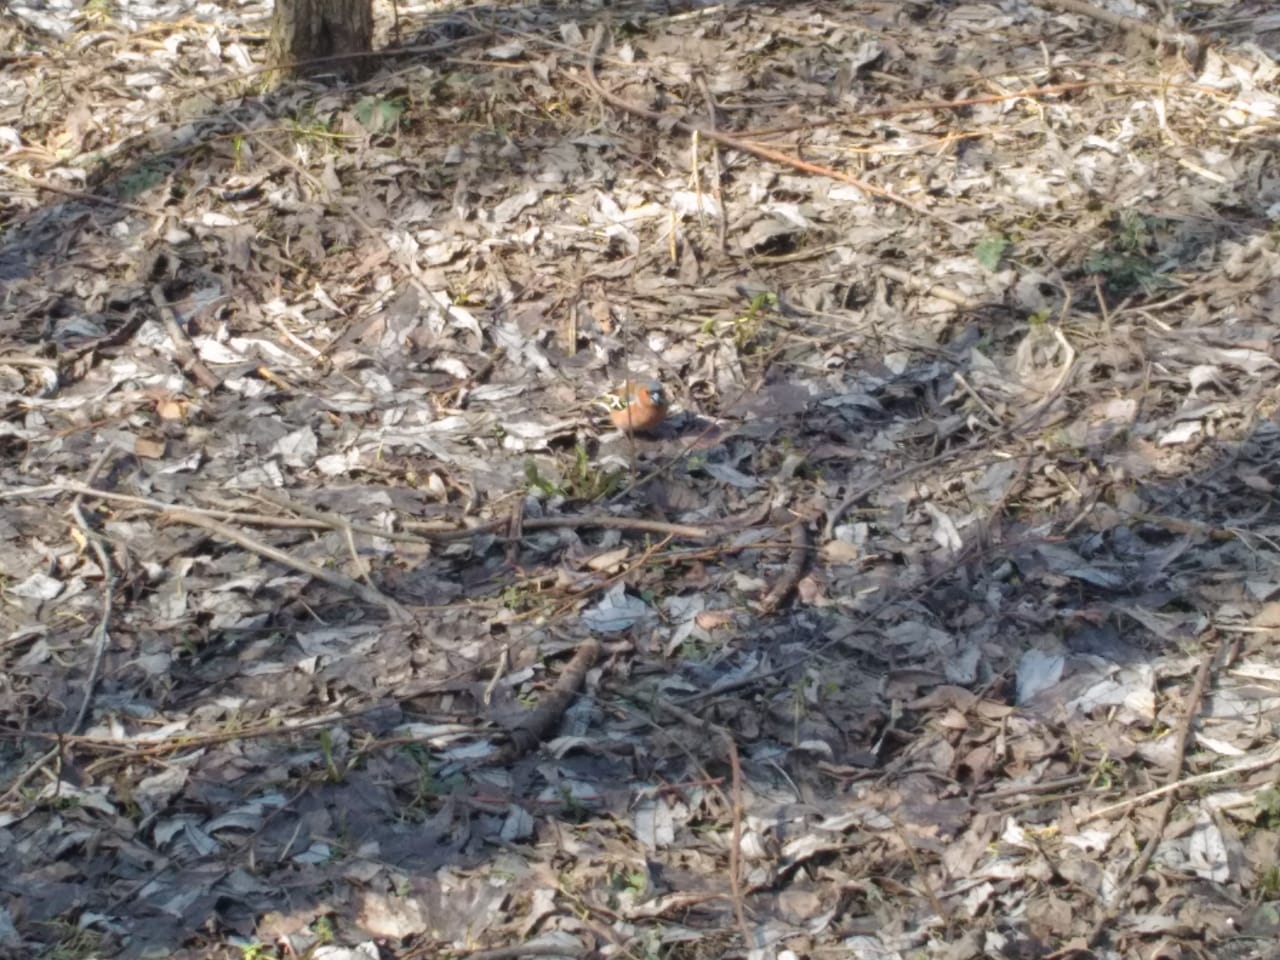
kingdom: Animalia
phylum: Chordata
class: Aves
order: Passeriformes
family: Fringillidae
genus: Fringilla
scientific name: Fringilla coelebs
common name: Common chaffinch
